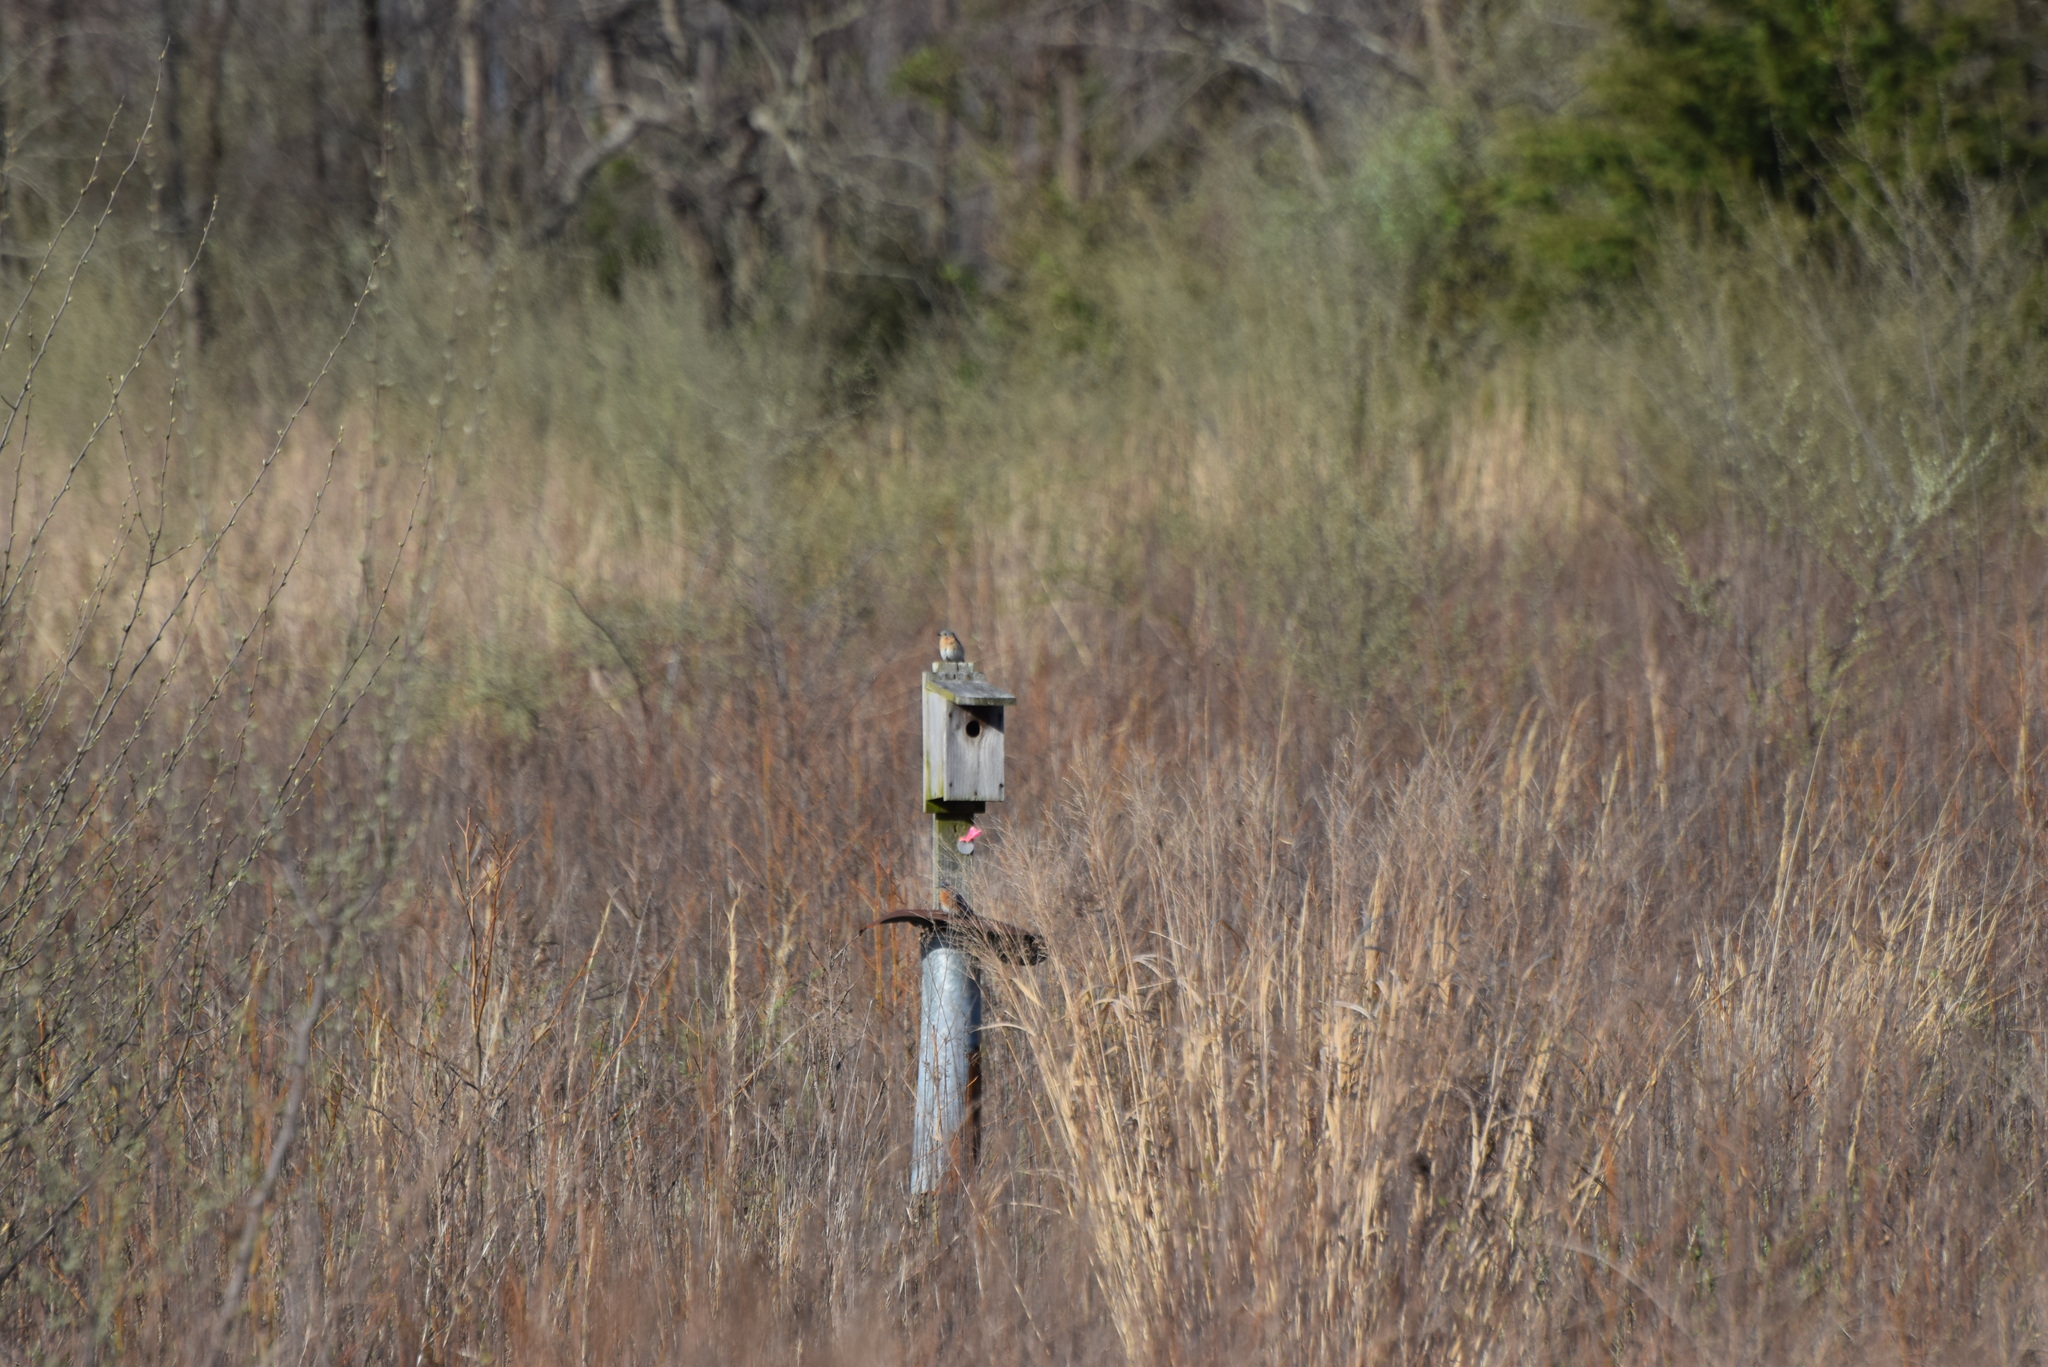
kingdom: Animalia
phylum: Chordata
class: Aves
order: Passeriformes
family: Turdidae
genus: Sialia
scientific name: Sialia sialis
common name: Eastern bluebird
